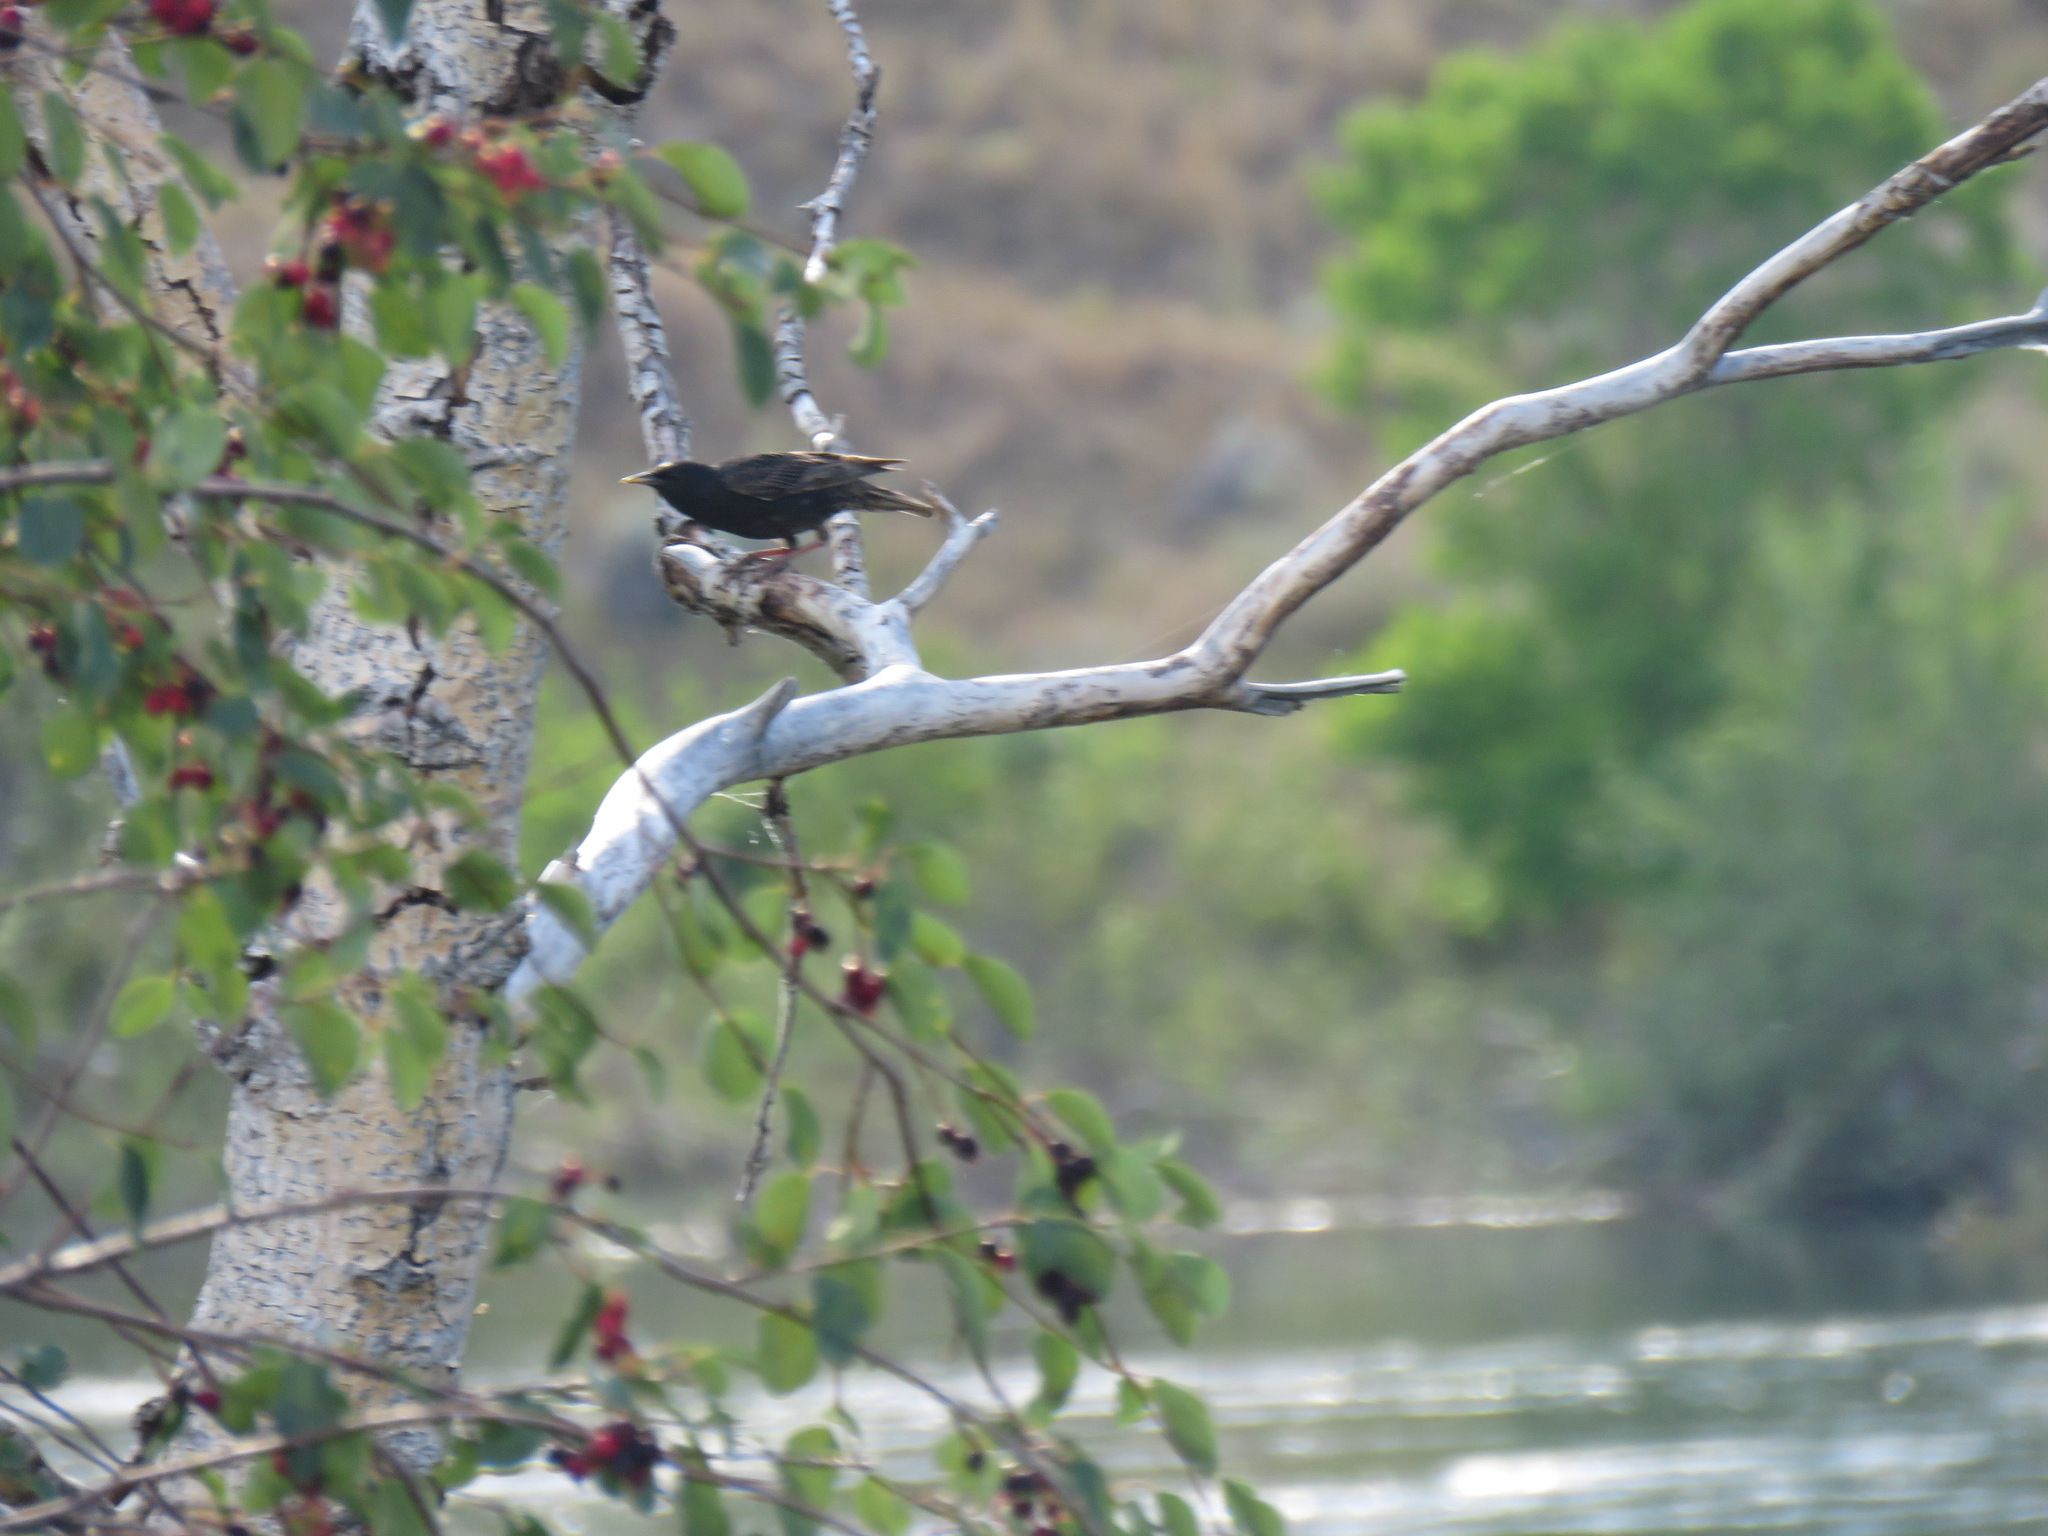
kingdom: Animalia
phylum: Chordata
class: Aves
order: Passeriformes
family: Sturnidae
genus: Sturnus
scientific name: Sturnus vulgaris
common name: Common starling
